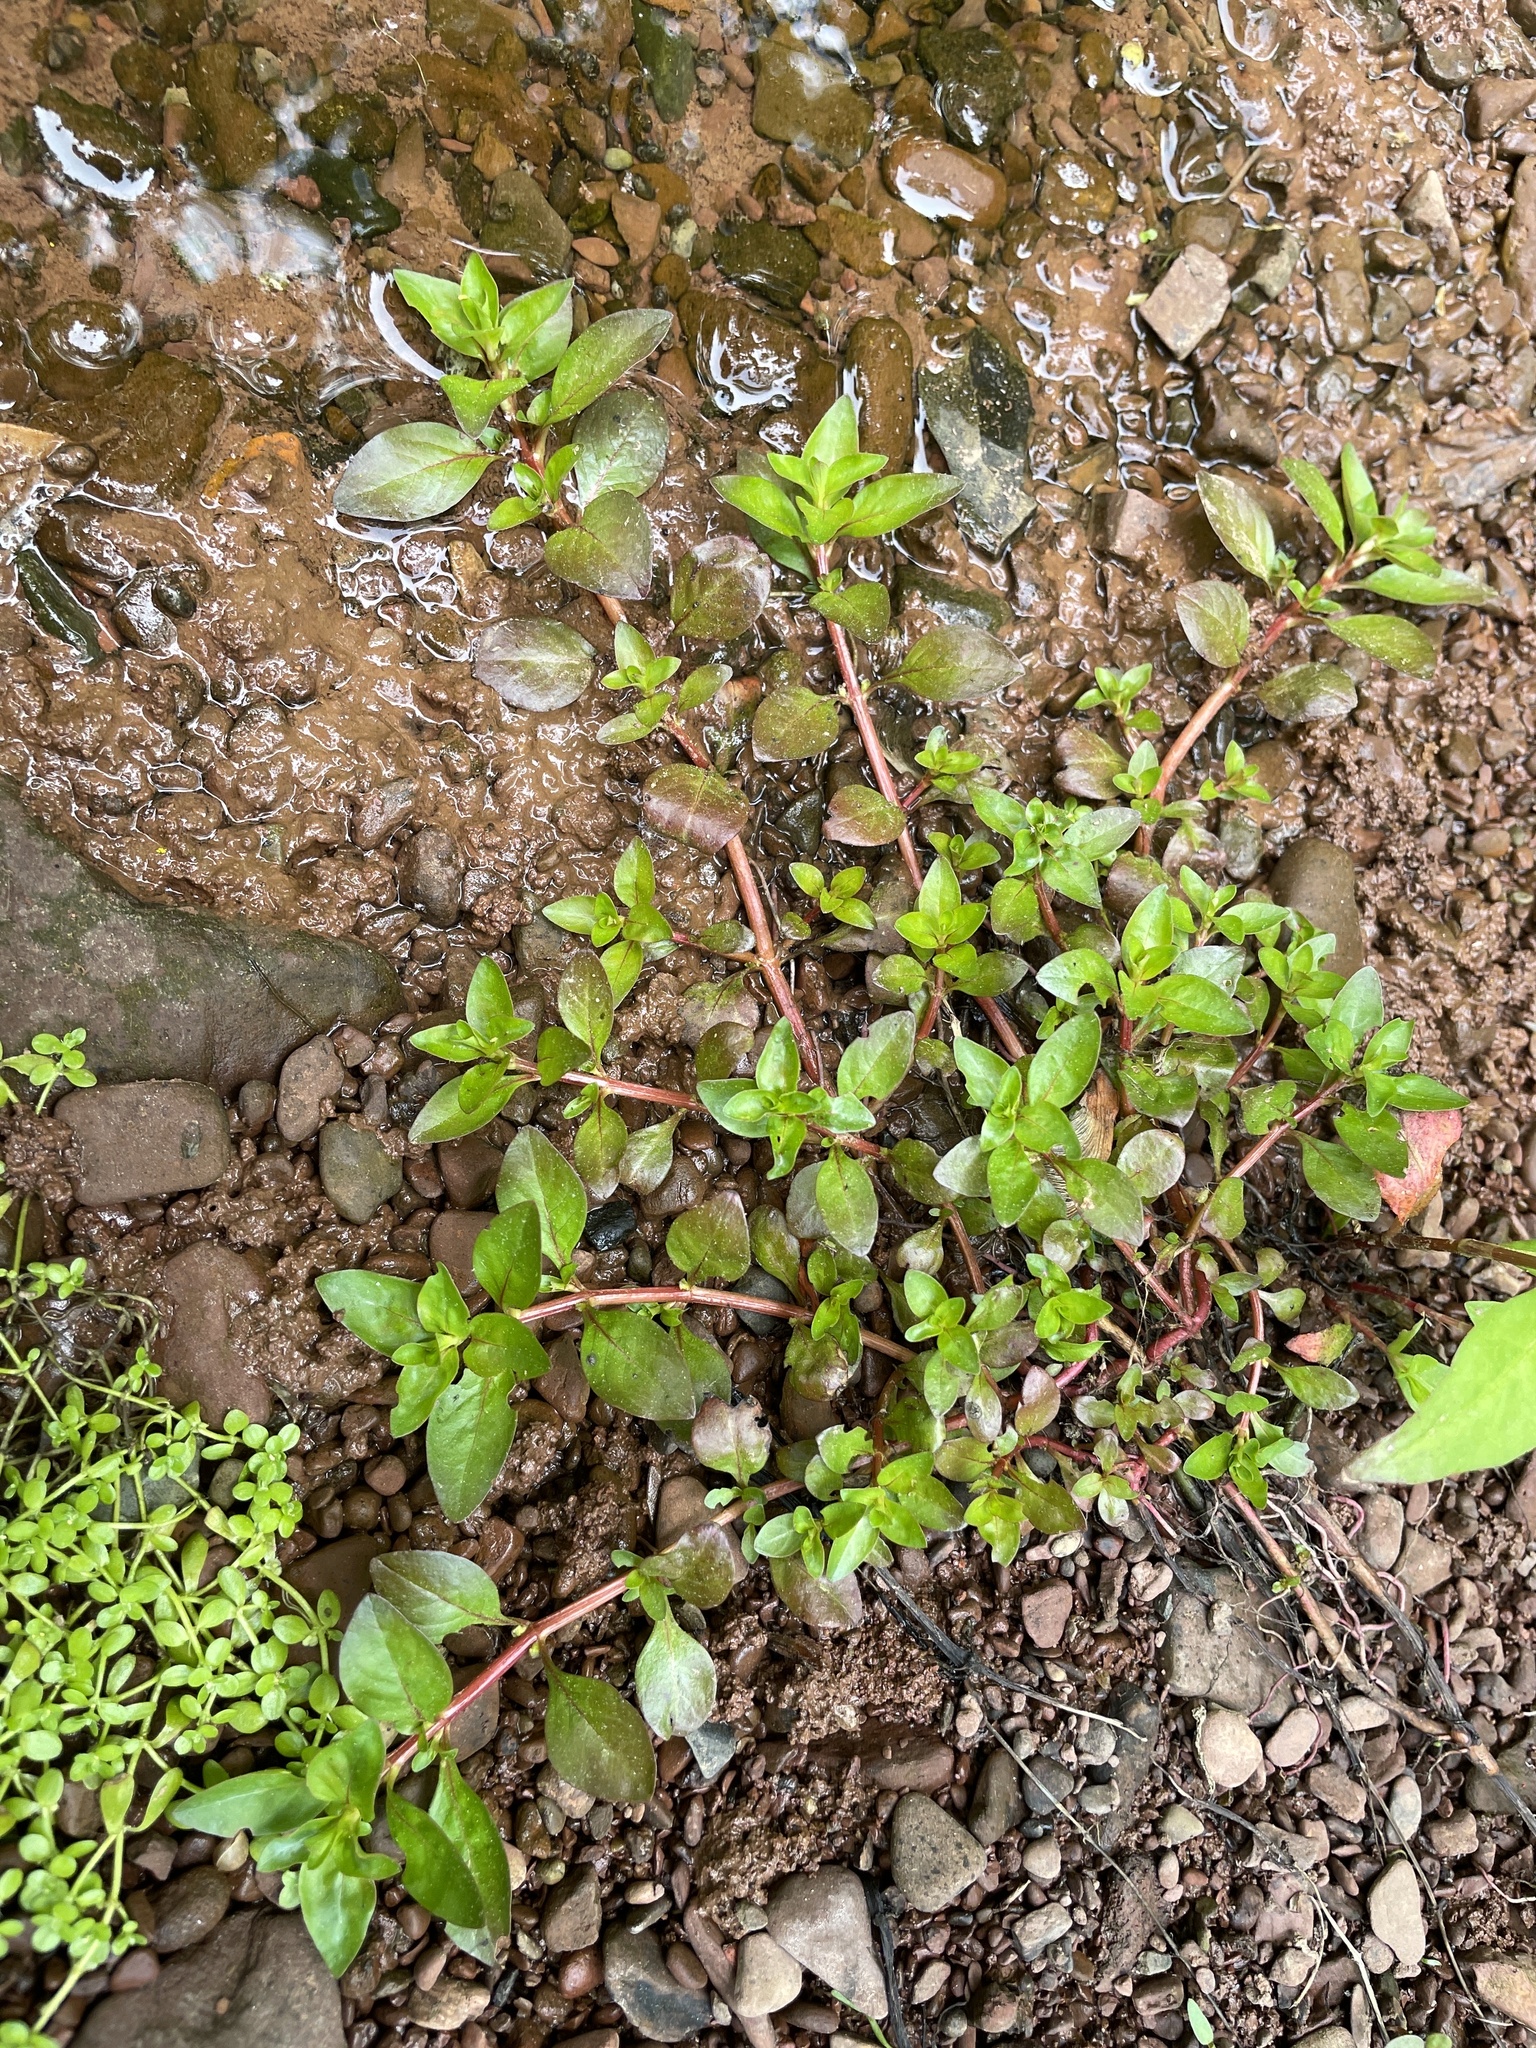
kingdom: Plantae
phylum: Tracheophyta
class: Magnoliopsida
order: Myrtales
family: Onagraceae
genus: Ludwigia
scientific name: Ludwigia palustris
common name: Hampshire-purslane
